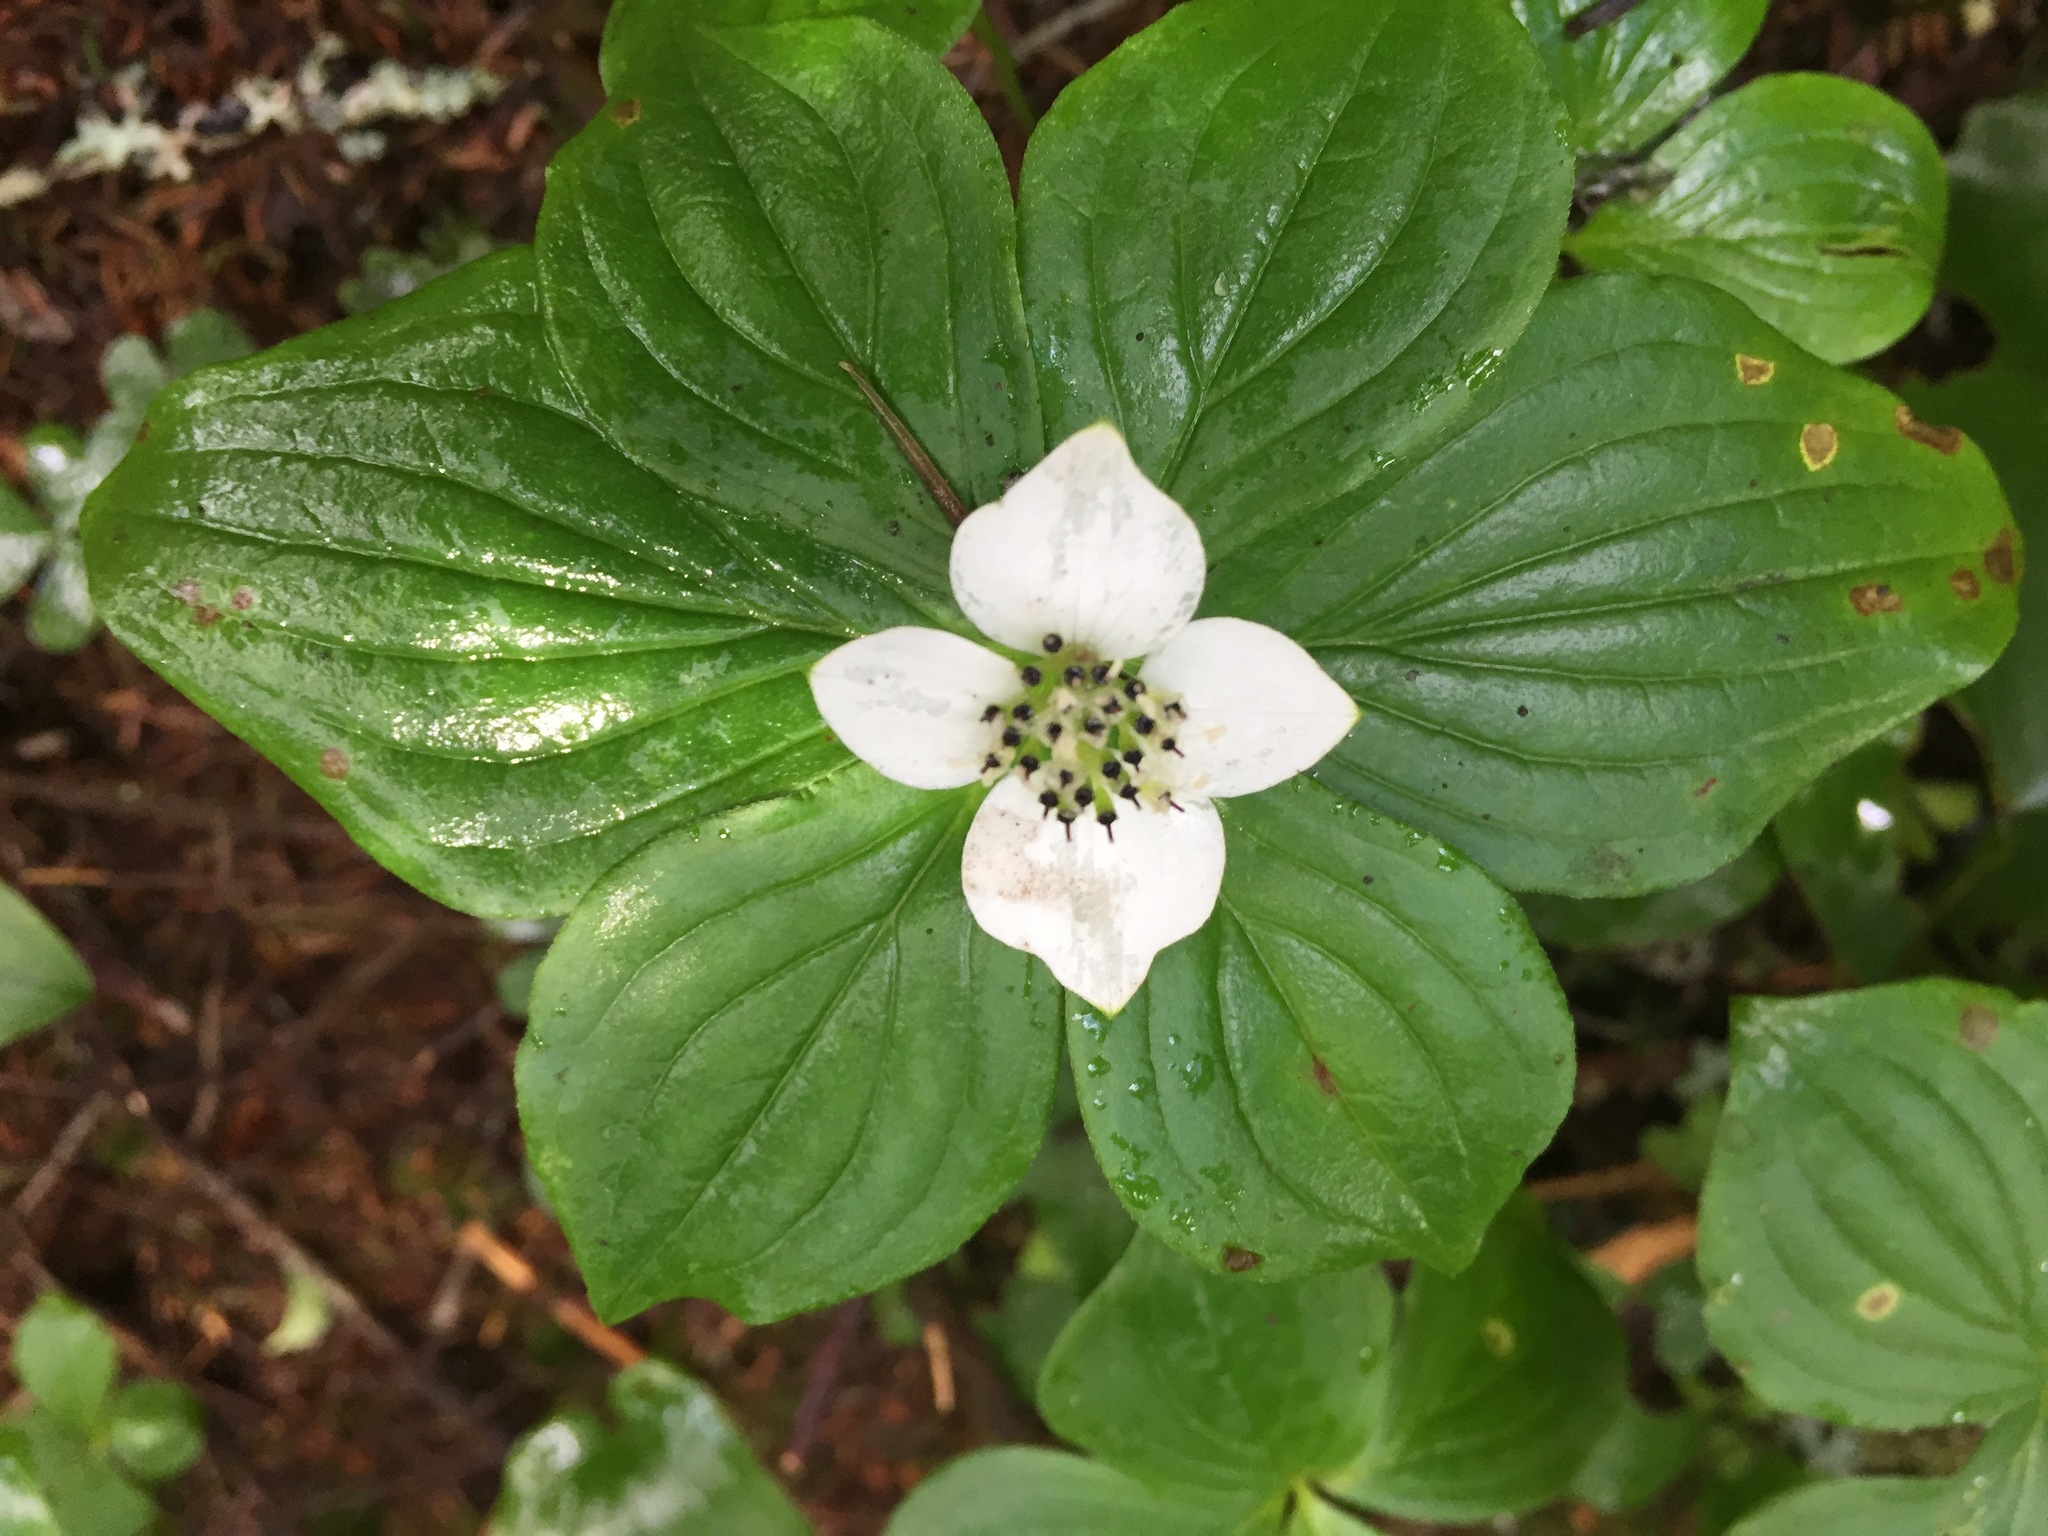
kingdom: Plantae
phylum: Tracheophyta
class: Magnoliopsida
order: Cornales
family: Cornaceae
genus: Cornus
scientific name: Cornus canadensis
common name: Creeping dogwood
